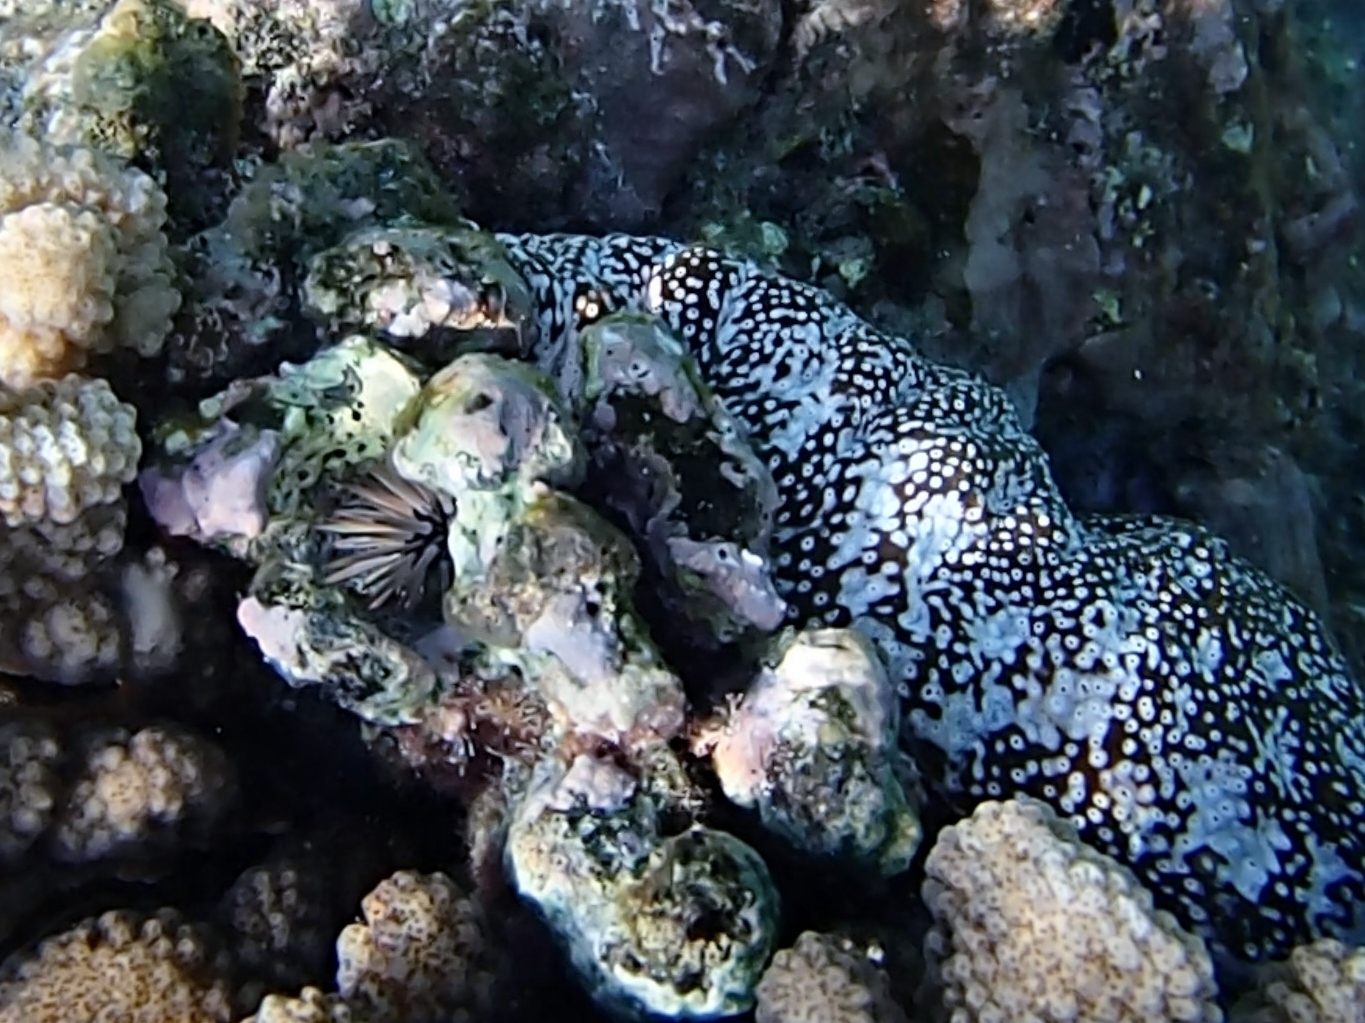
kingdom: Animalia
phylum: Echinodermata
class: Holothuroidea
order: Holothuriida
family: Holothuriidae
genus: Actinopyga
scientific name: Actinopyga varians
